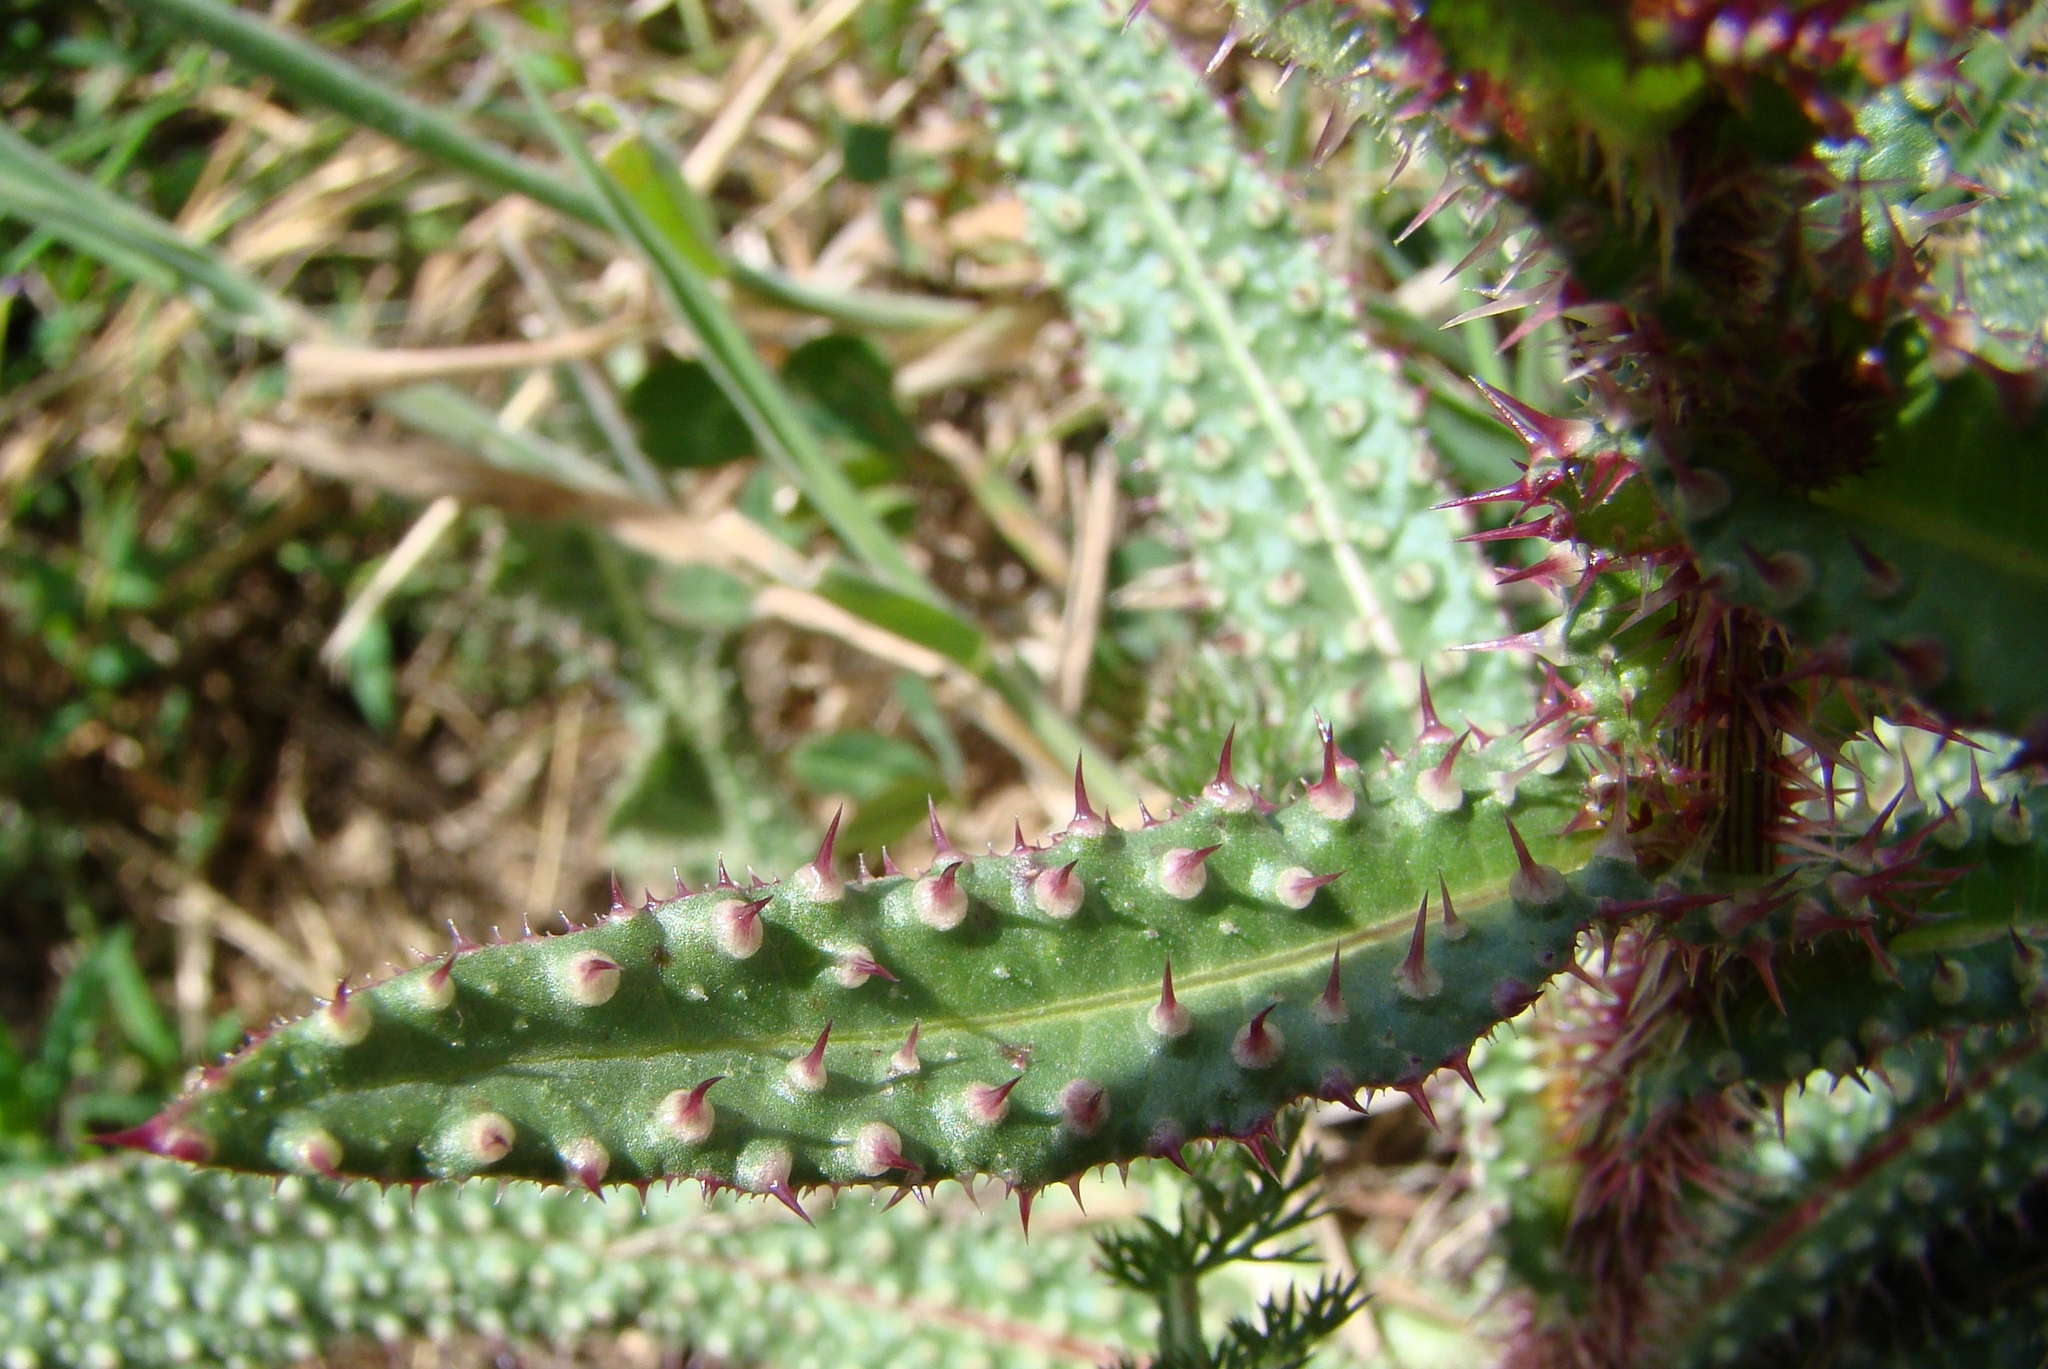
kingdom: Plantae
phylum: Tracheophyta
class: Magnoliopsida
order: Asterales
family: Asteraceae
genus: Helminthotheca
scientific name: Helminthotheca echioides
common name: Ox-tongue
